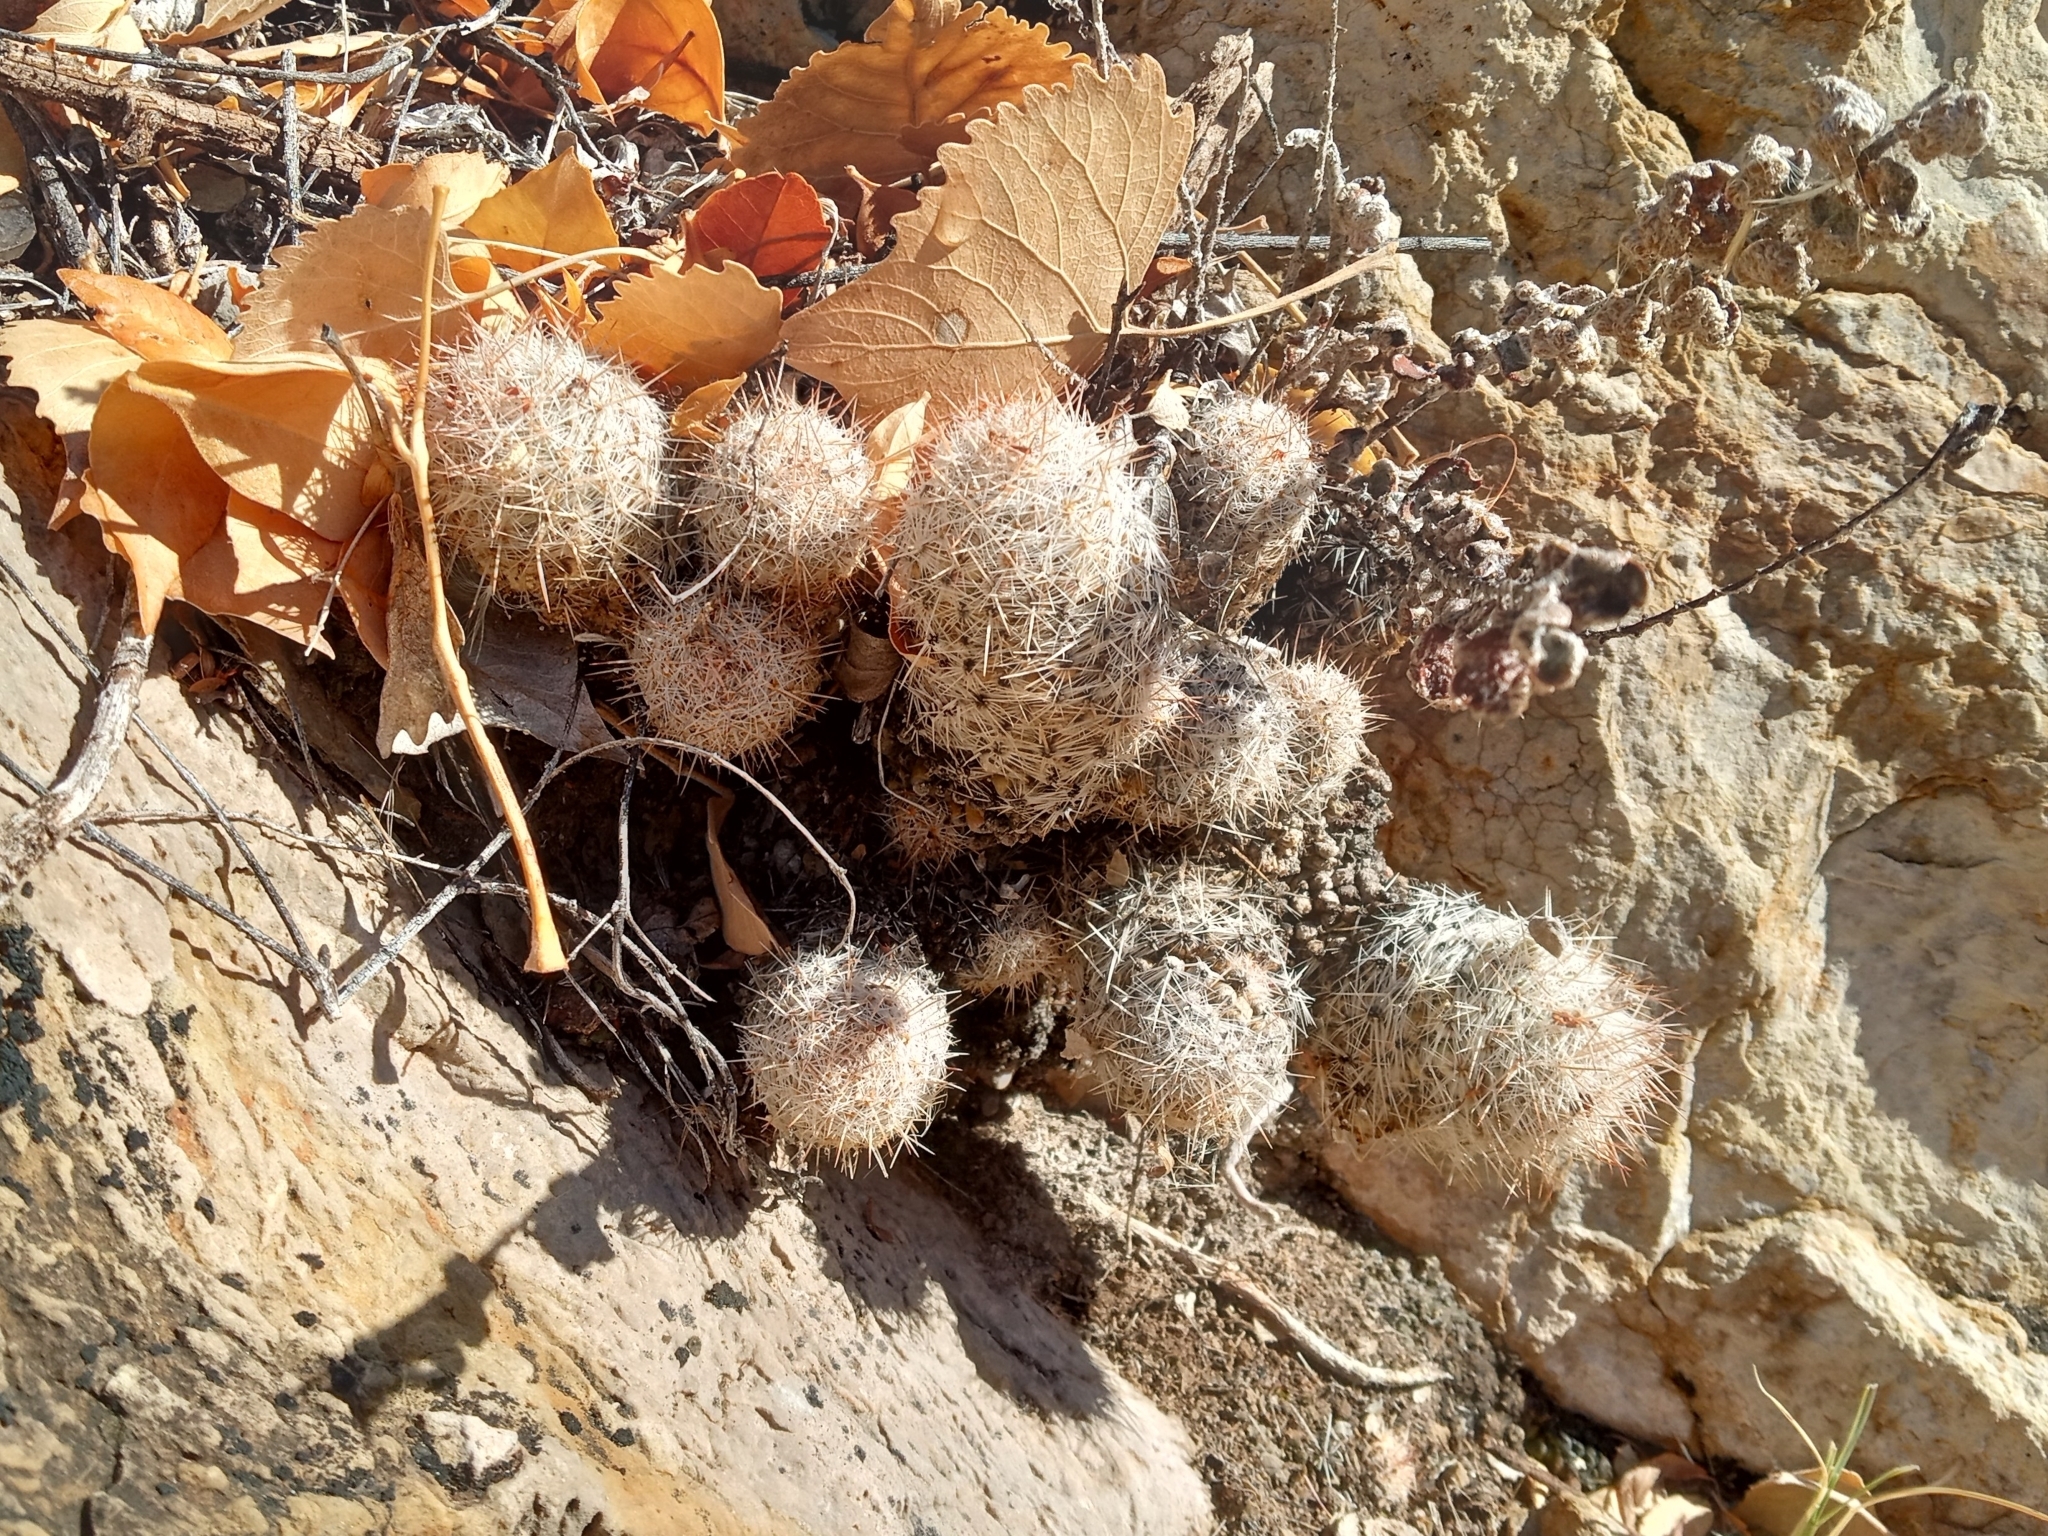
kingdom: Plantae
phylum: Tracheophyta
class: Magnoliopsida
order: Caryophyllales
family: Cactaceae
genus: Pelecyphora
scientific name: Pelecyphora tuberculosa
